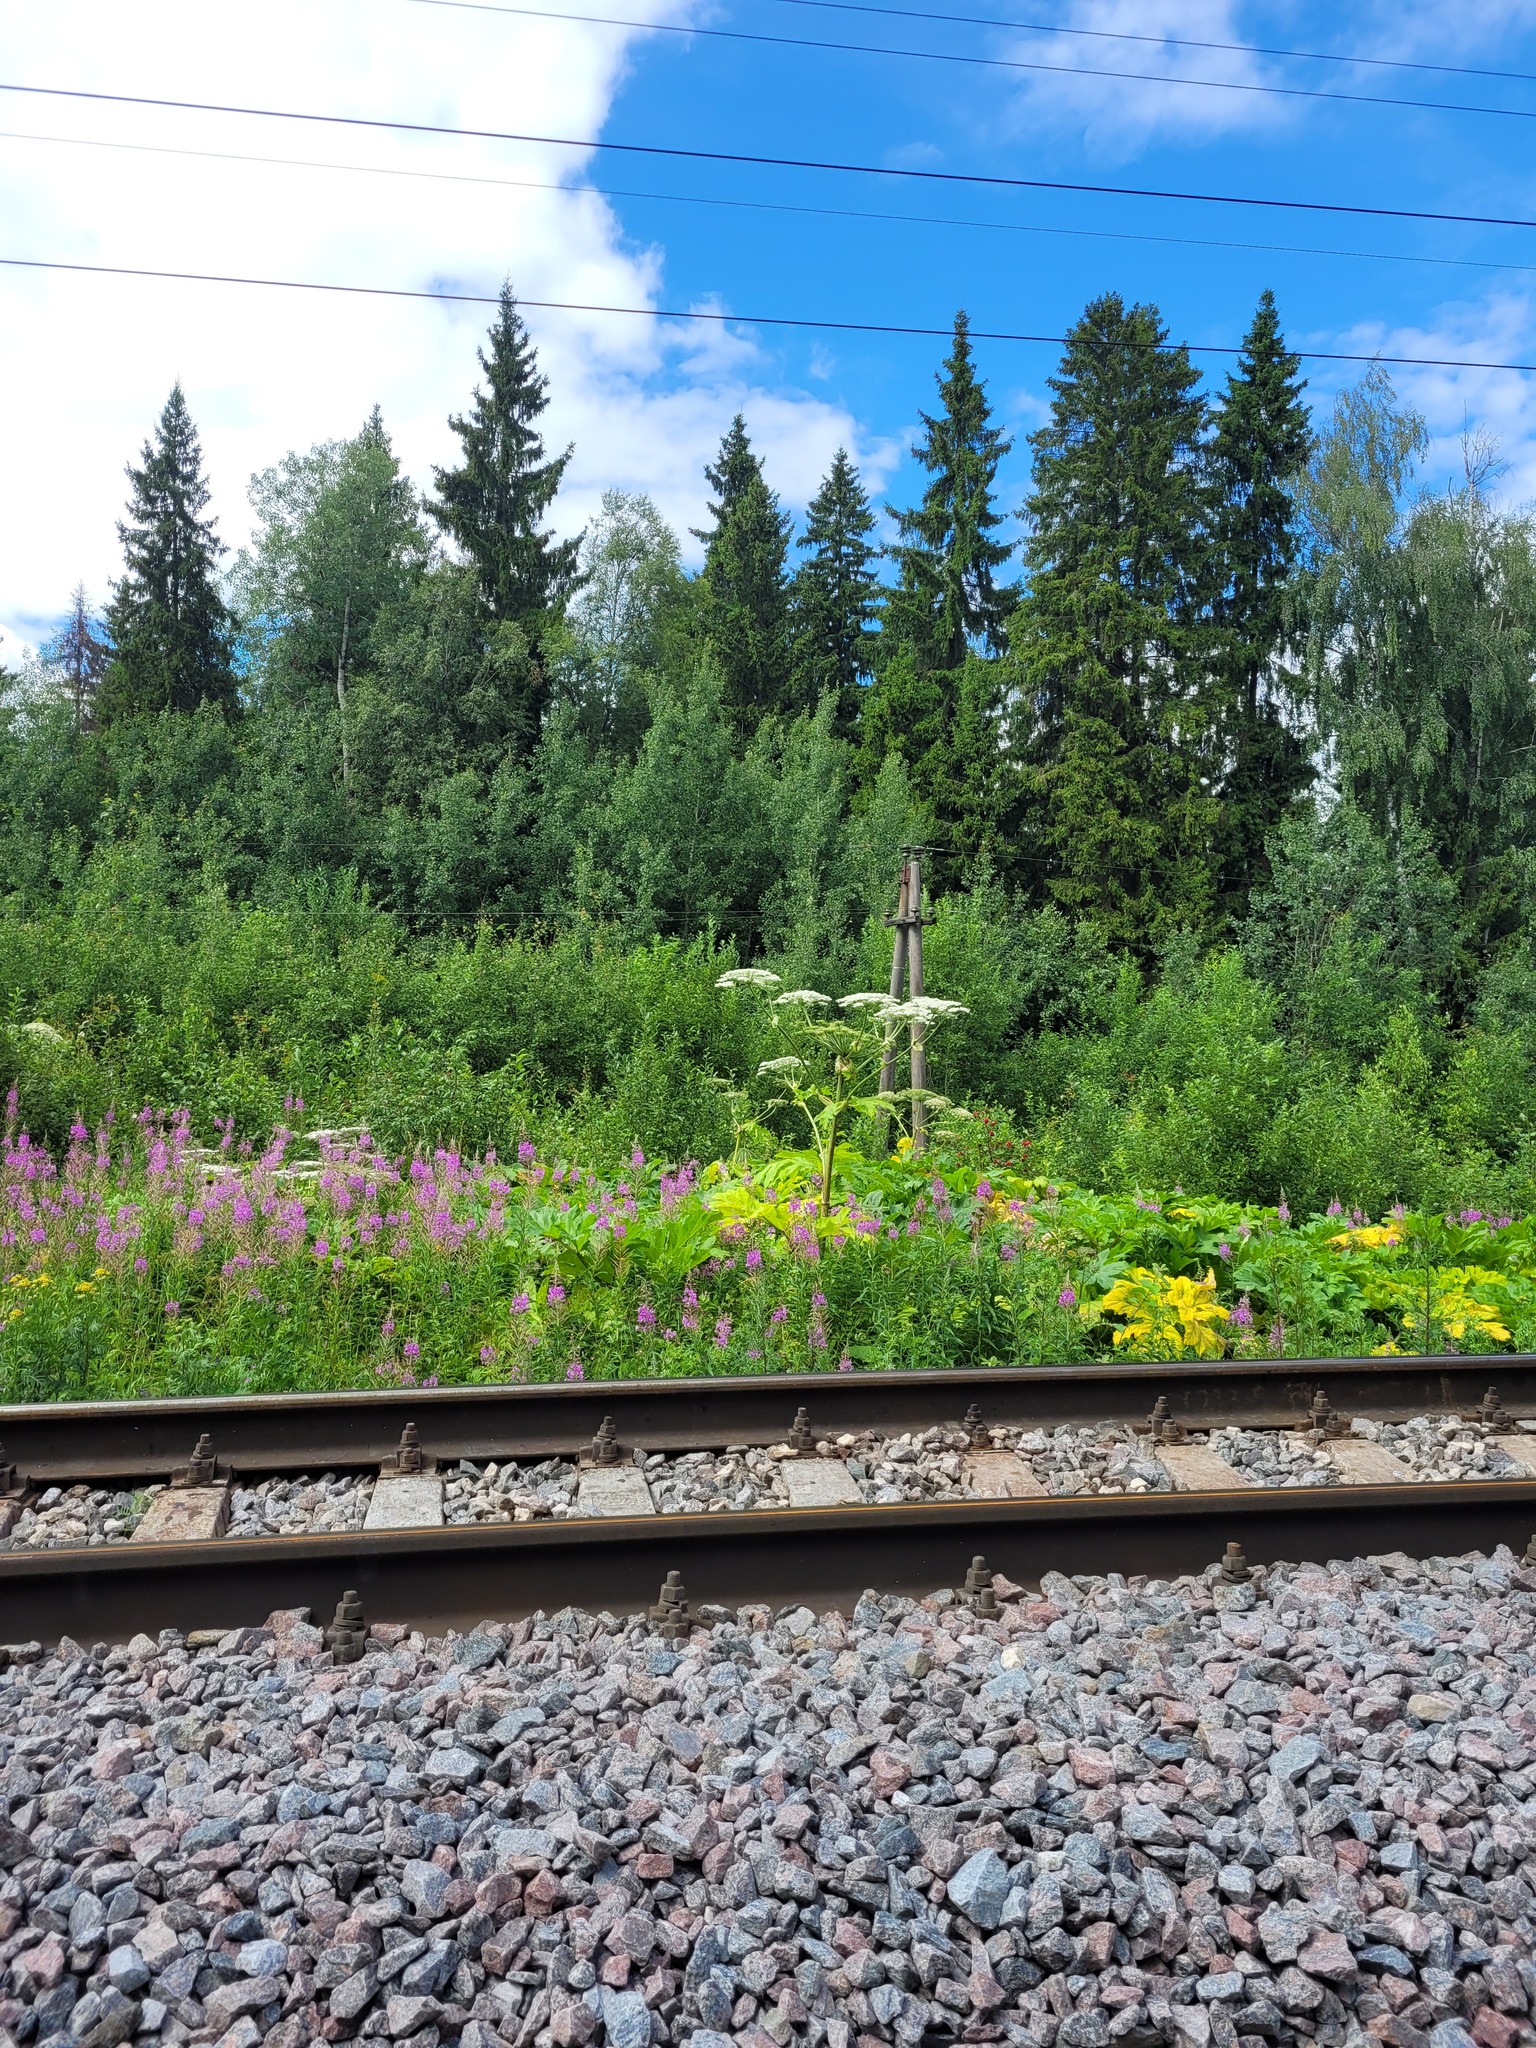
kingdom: Plantae
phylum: Tracheophyta
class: Magnoliopsida
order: Apiales
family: Apiaceae
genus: Heracleum
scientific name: Heracleum sosnowskyi
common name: Sosnowsky's hogweed
